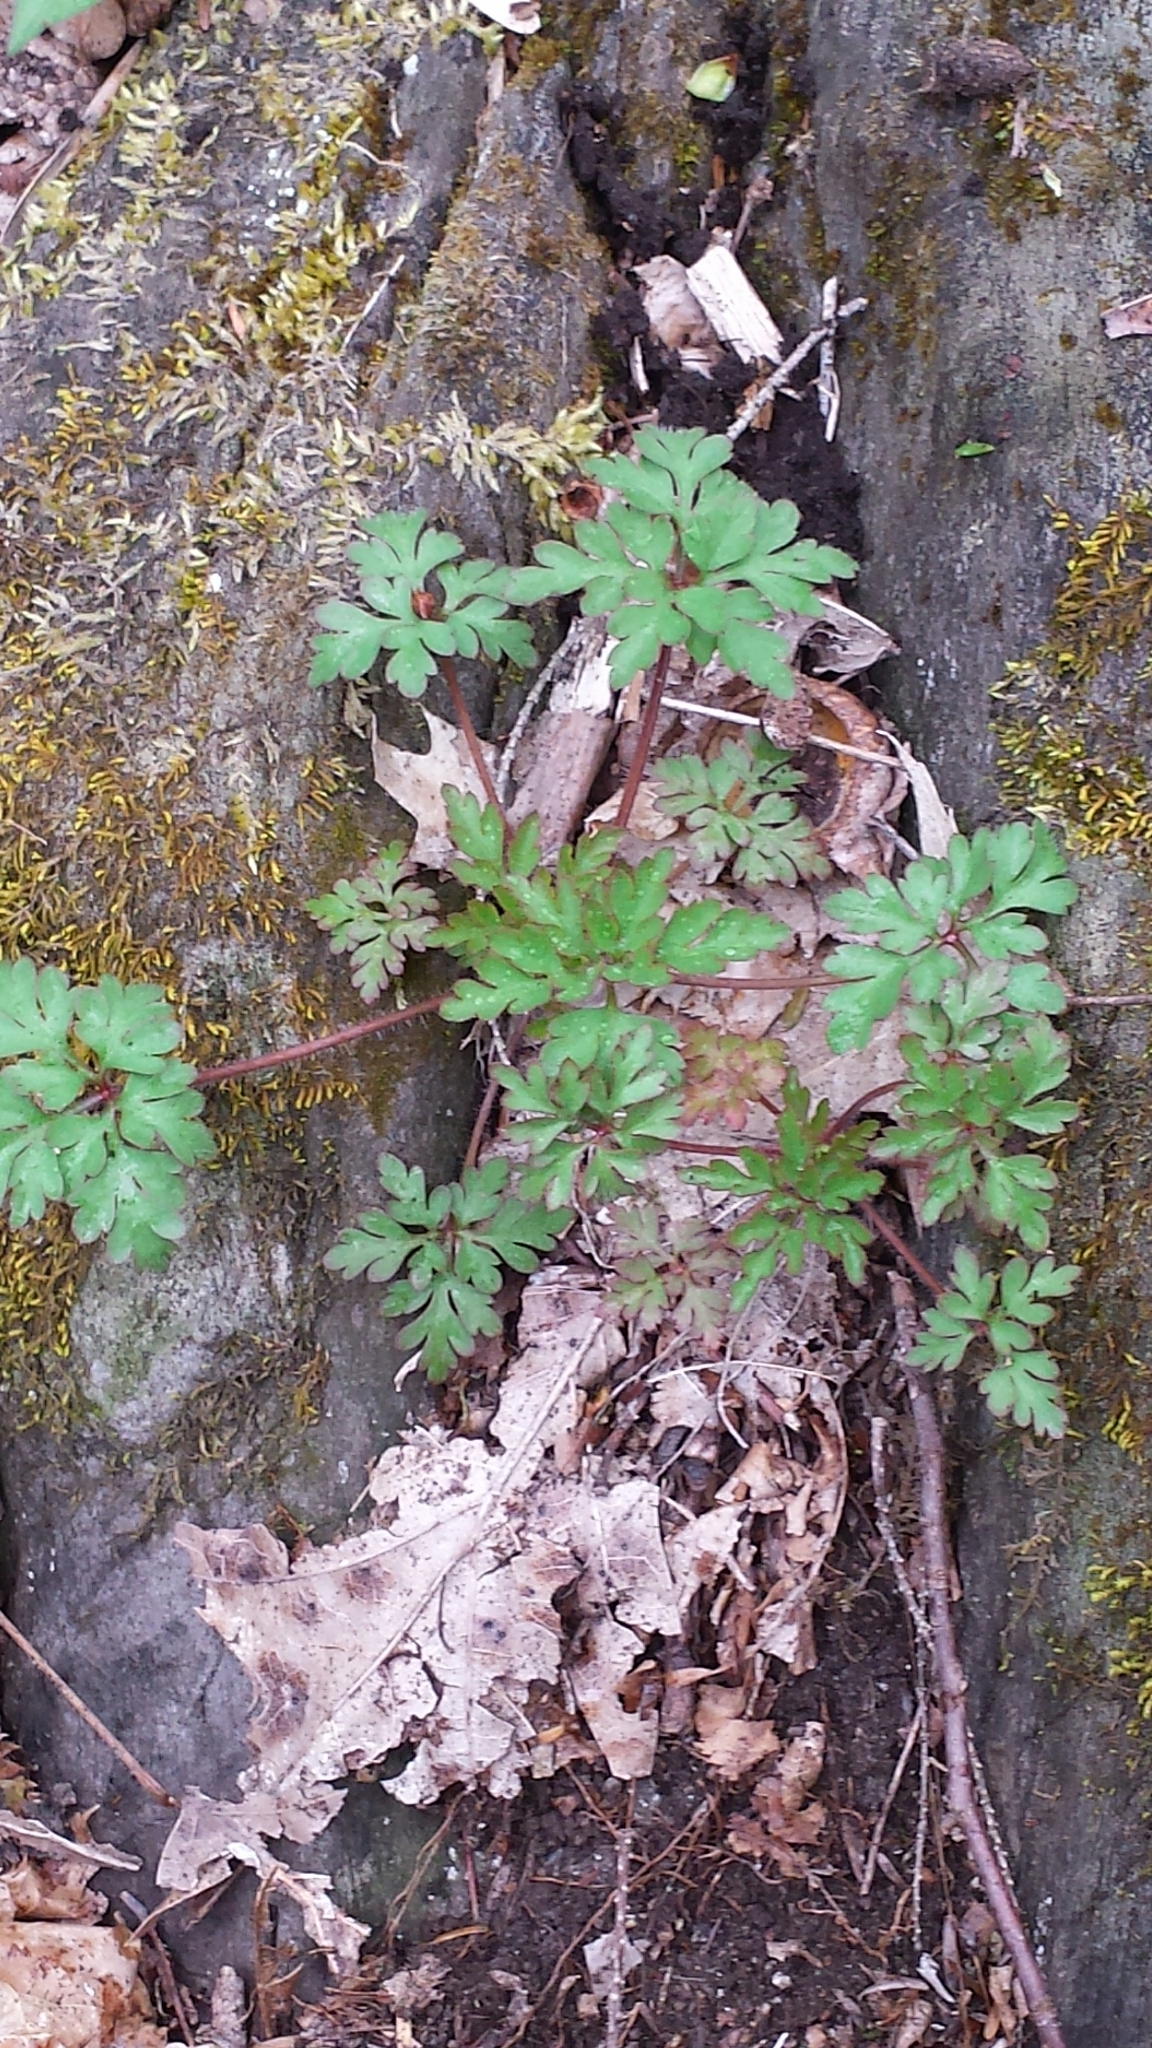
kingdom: Plantae
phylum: Tracheophyta
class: Magnoliopsida
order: Geraniales
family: Geraniaceae
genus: Geranium
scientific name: Geranium robertianum
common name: Herb-robert
